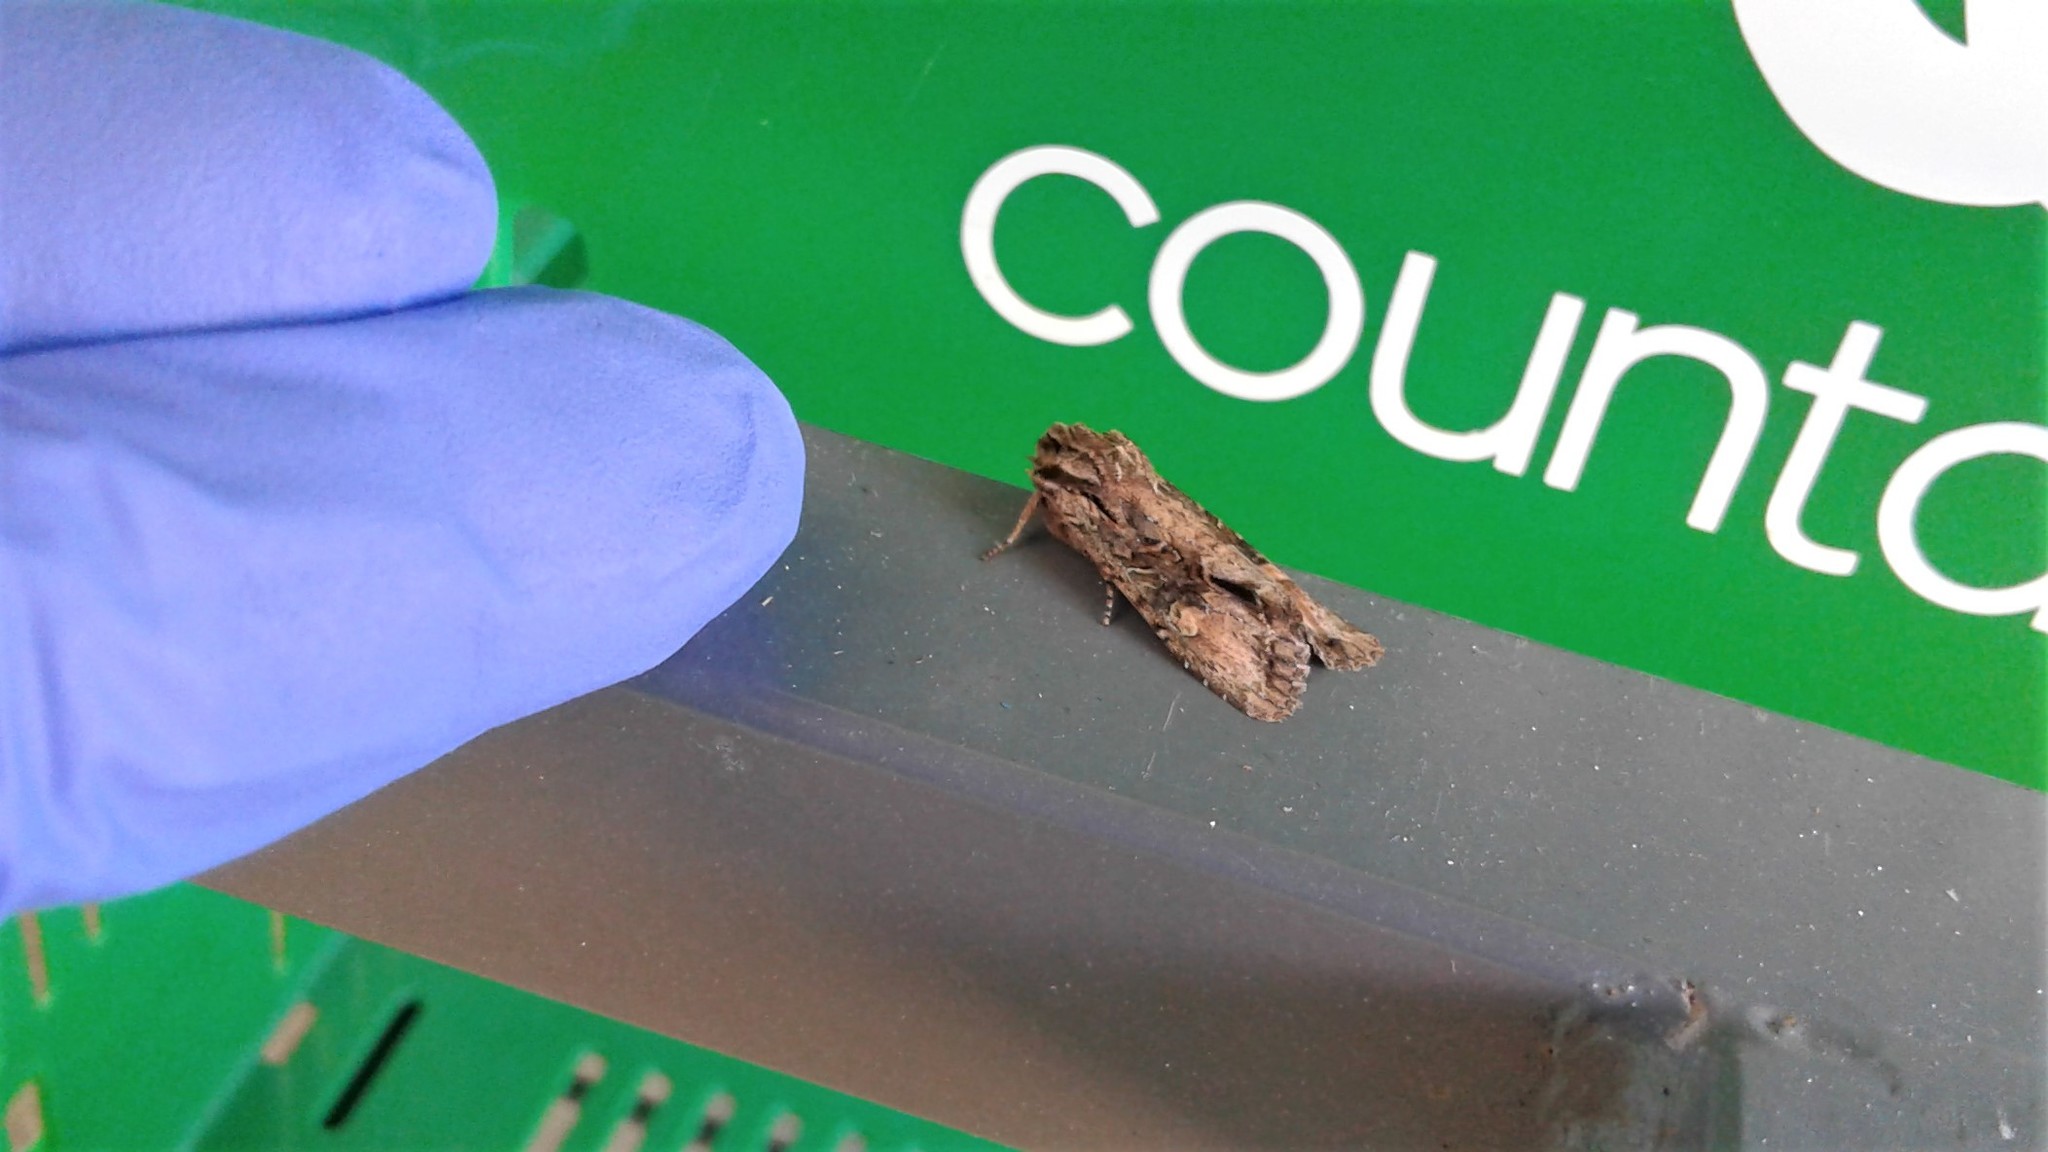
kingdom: Animalia
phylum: Arthropoda
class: Insecta
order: Lepidoptera
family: Noctuidae
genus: Ichneutica
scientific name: Ichneutica mutans
